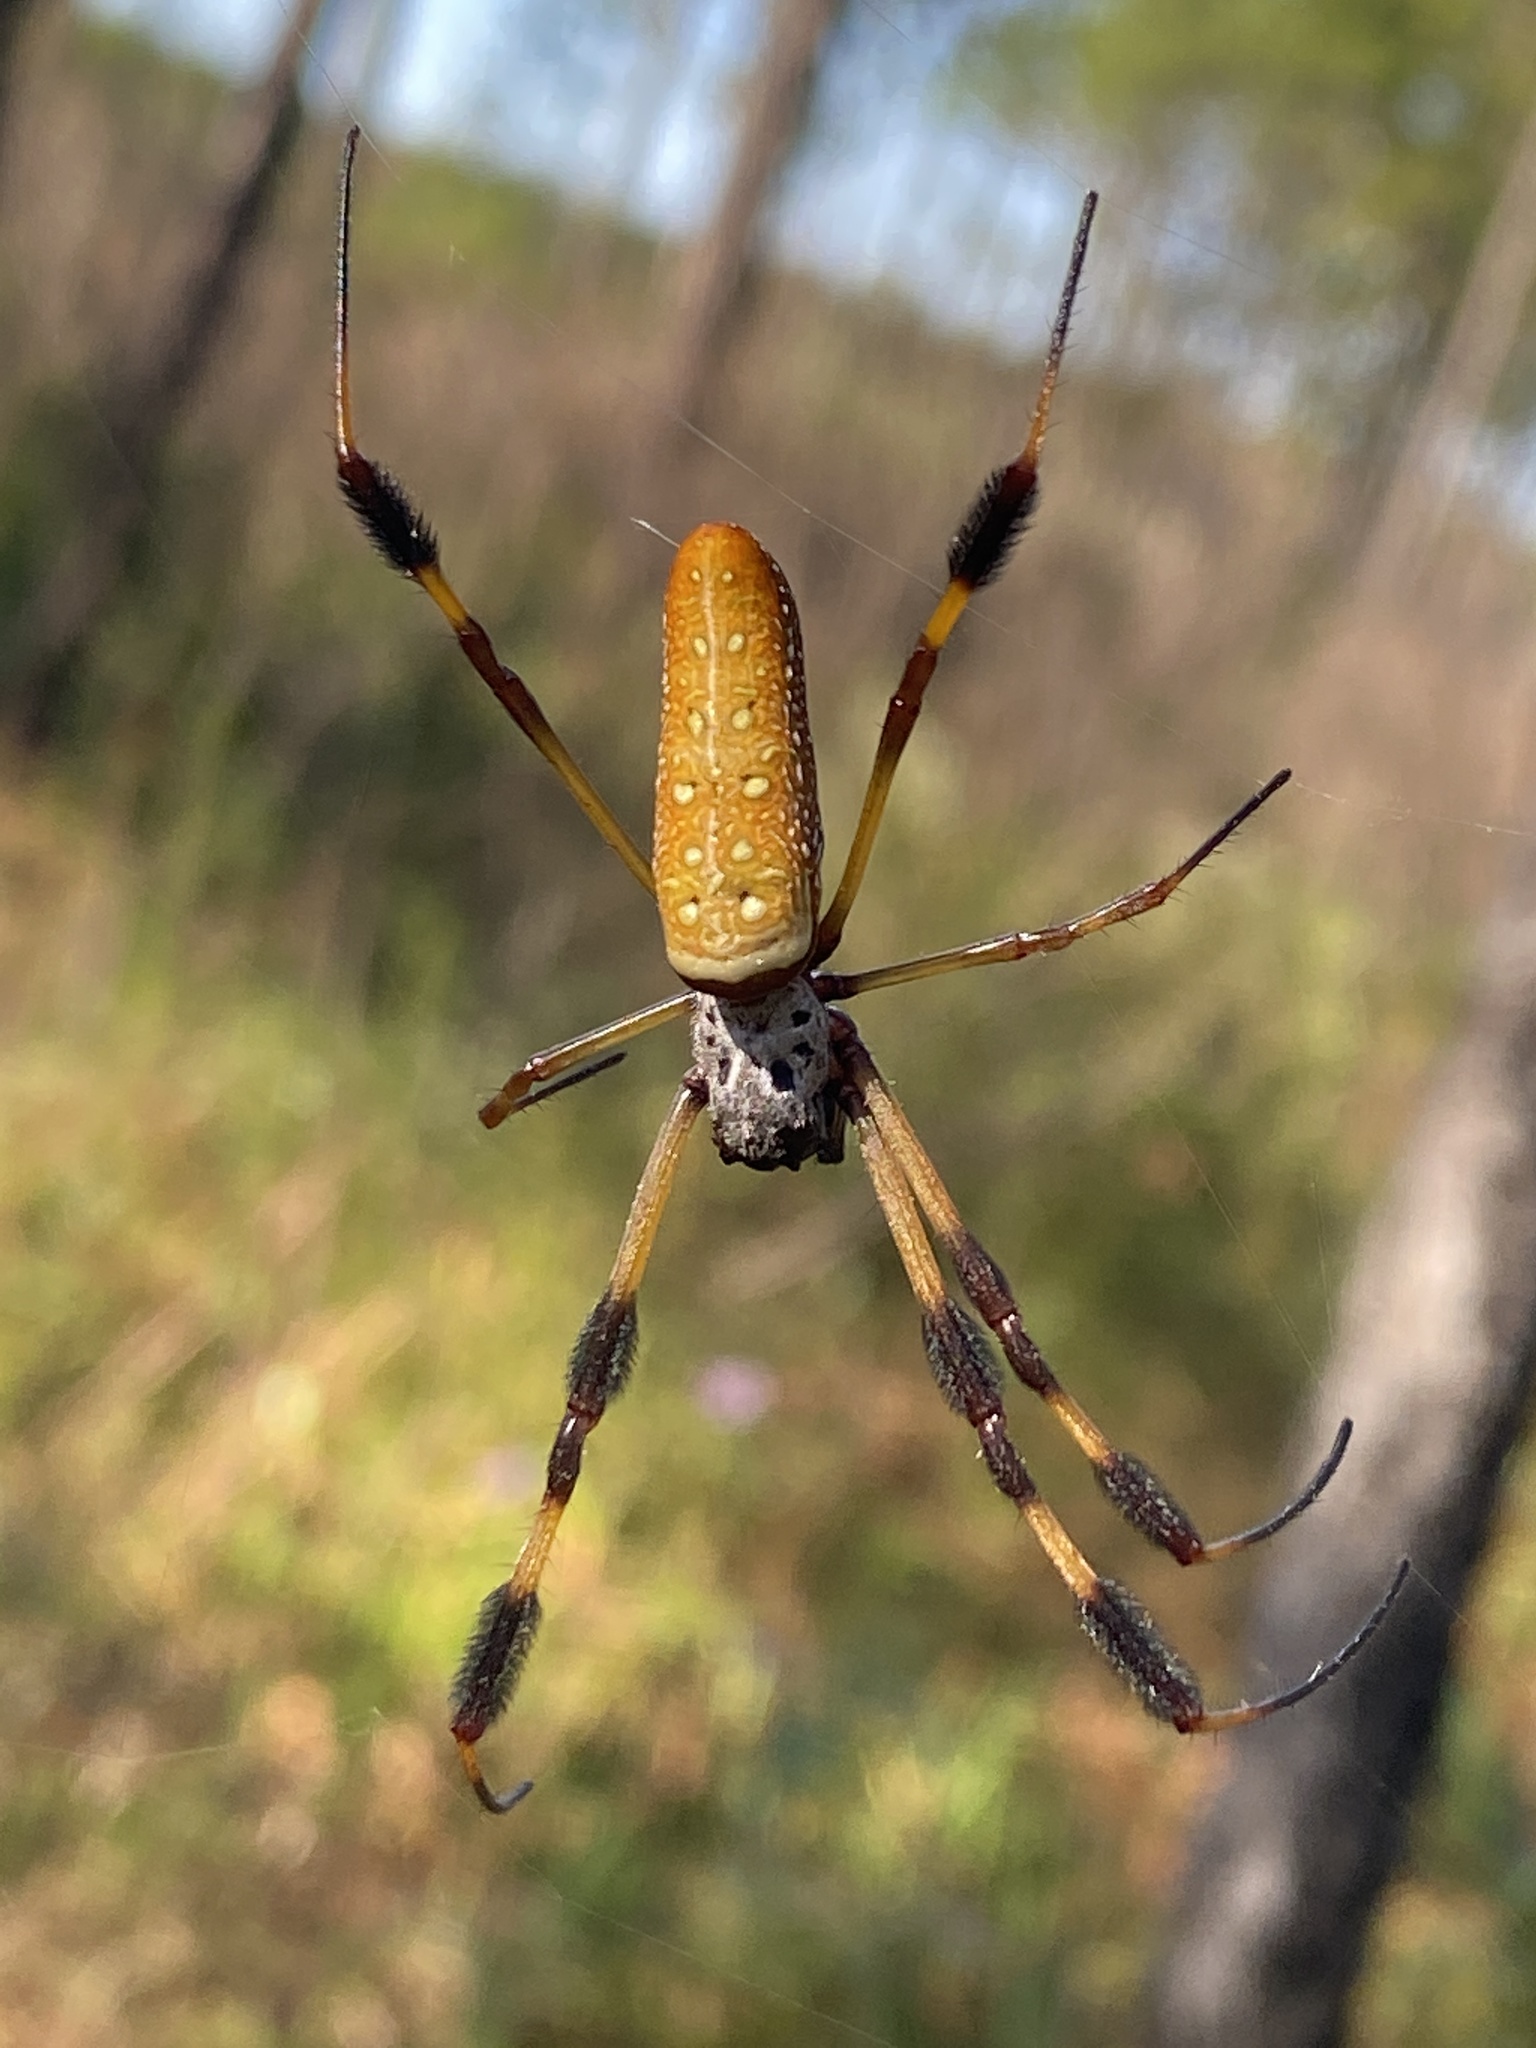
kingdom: Animalia
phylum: Arthropoda
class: Arachnida
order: Araneae
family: Araneidae
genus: Trichonephila
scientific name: Trichonephila clavipes
